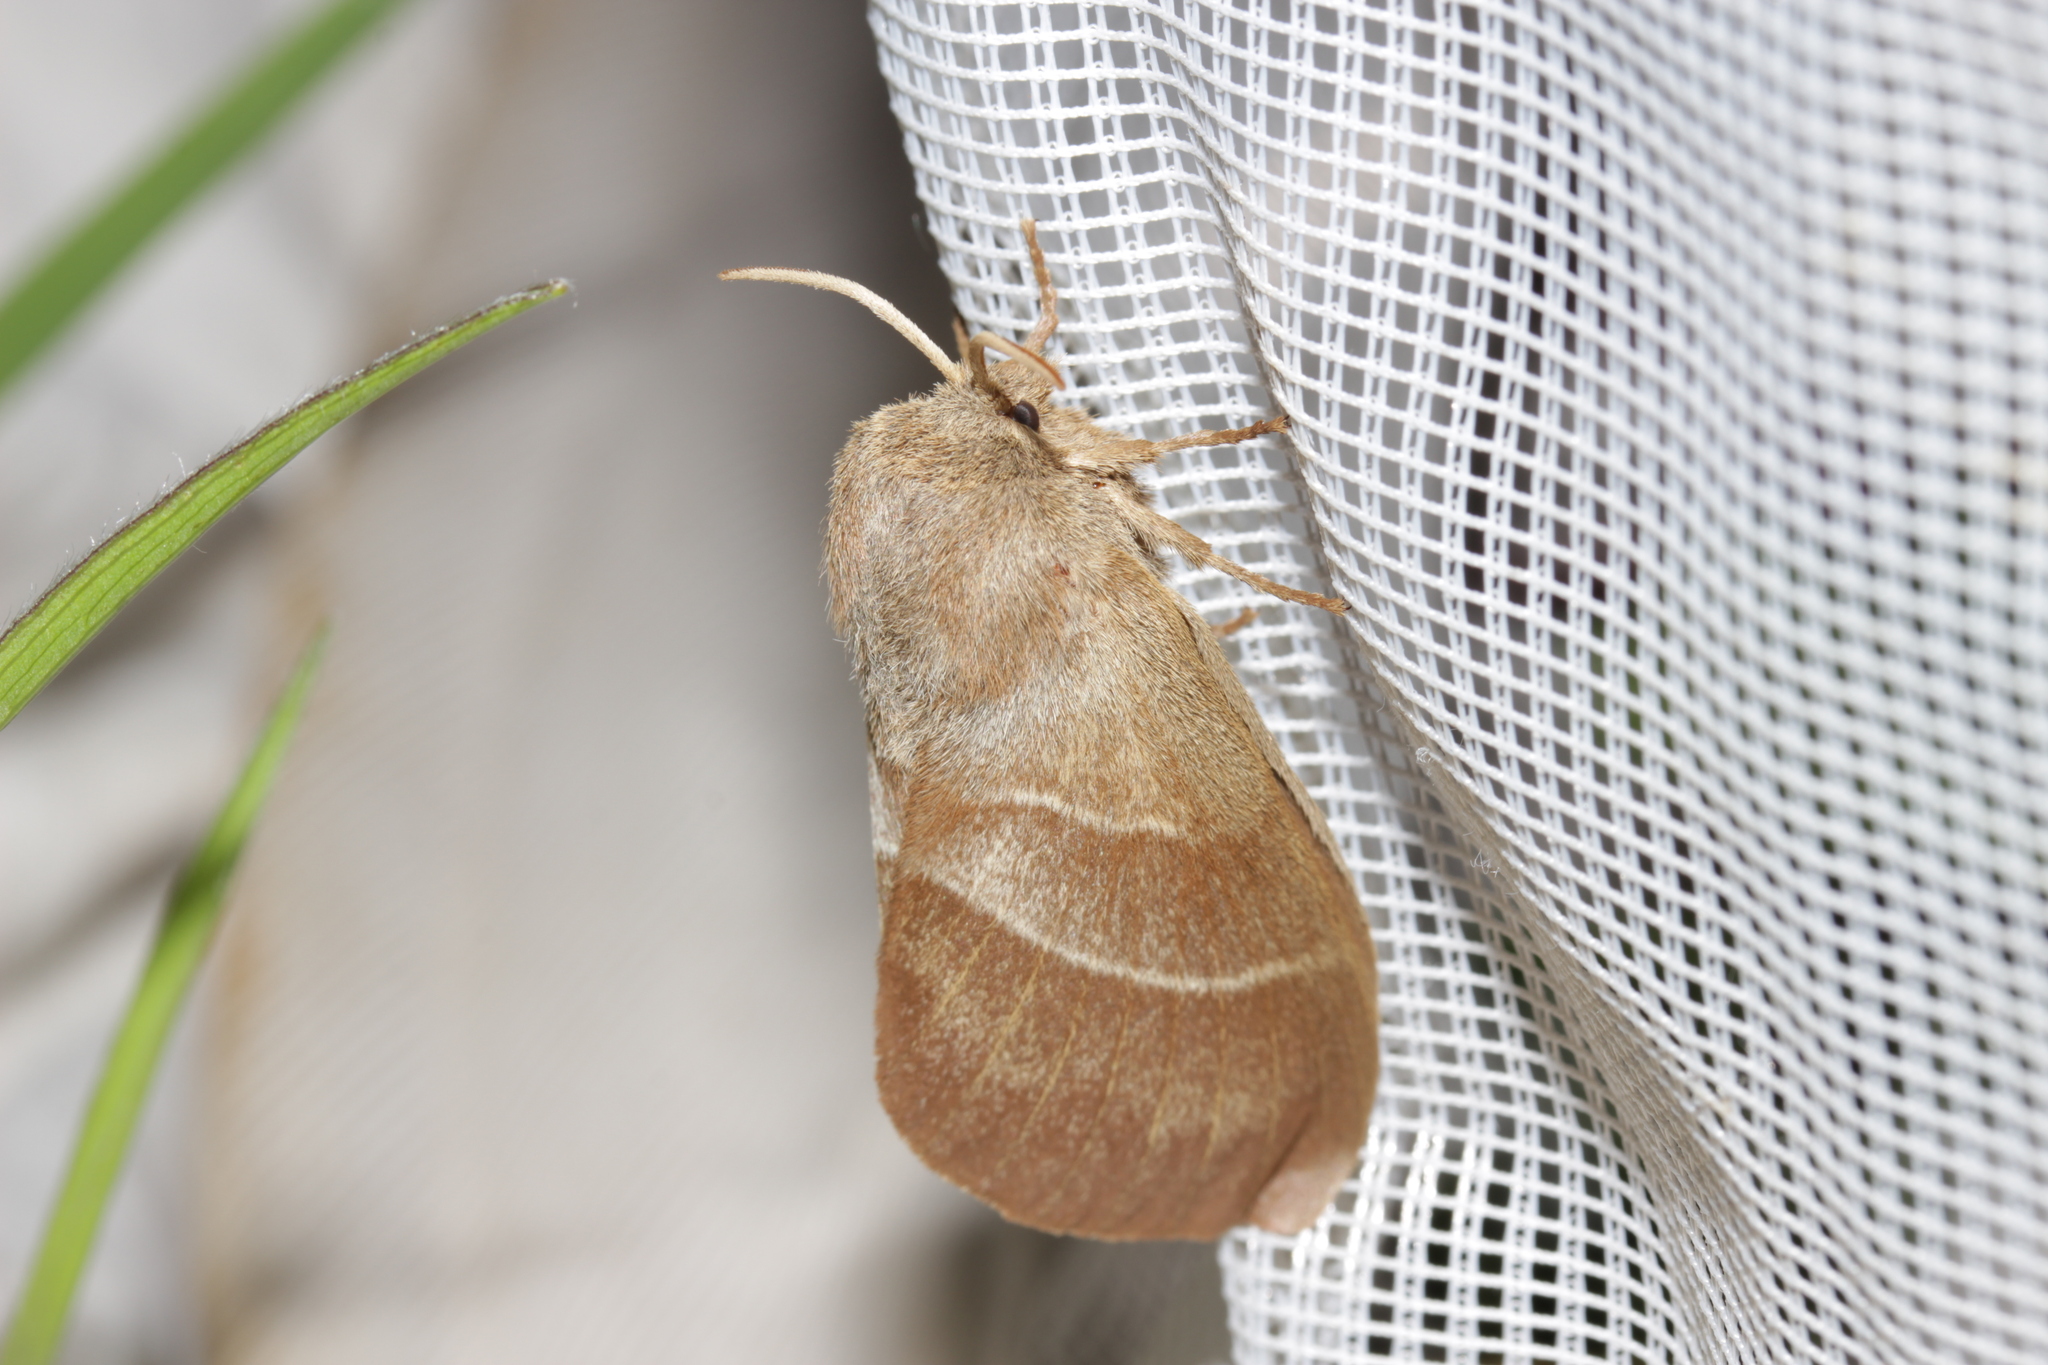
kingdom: Animalia
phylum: Arthropoda
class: Insecta
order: Lepidoptera
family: Lasiocampidae
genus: Macrothylacia
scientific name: Macrothylacia rubi
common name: Fox moth
